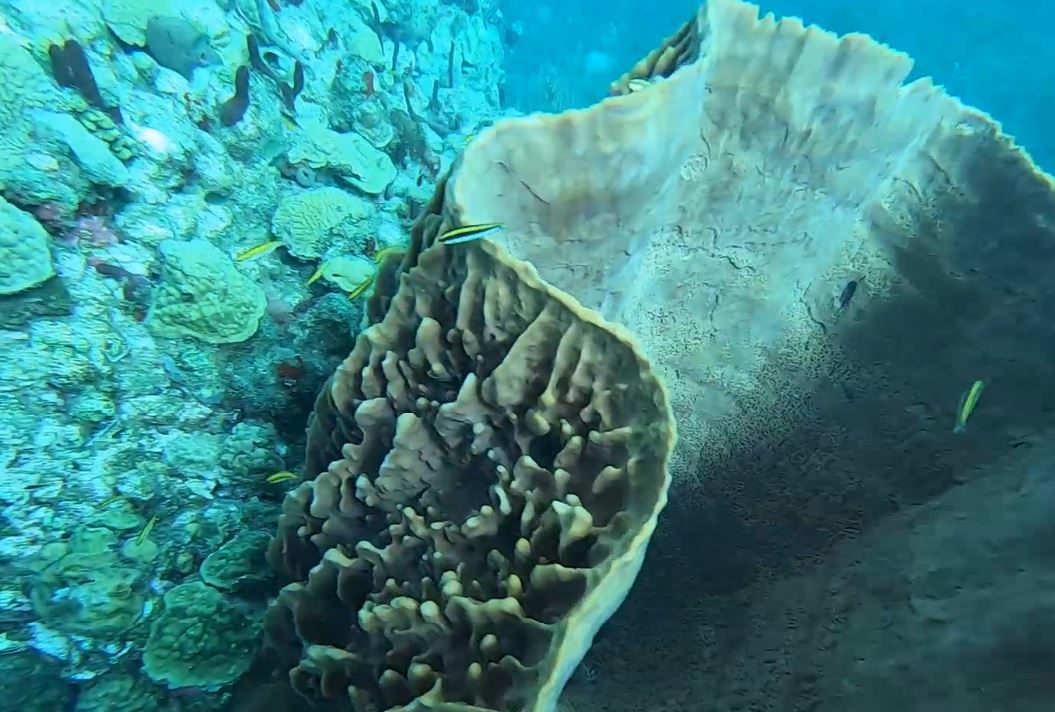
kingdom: Animalia
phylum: Chordata
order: Perciformes
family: Labridae
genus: Thalassoma
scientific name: Thalassoma bifasciatum
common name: Bluehead wrasse
